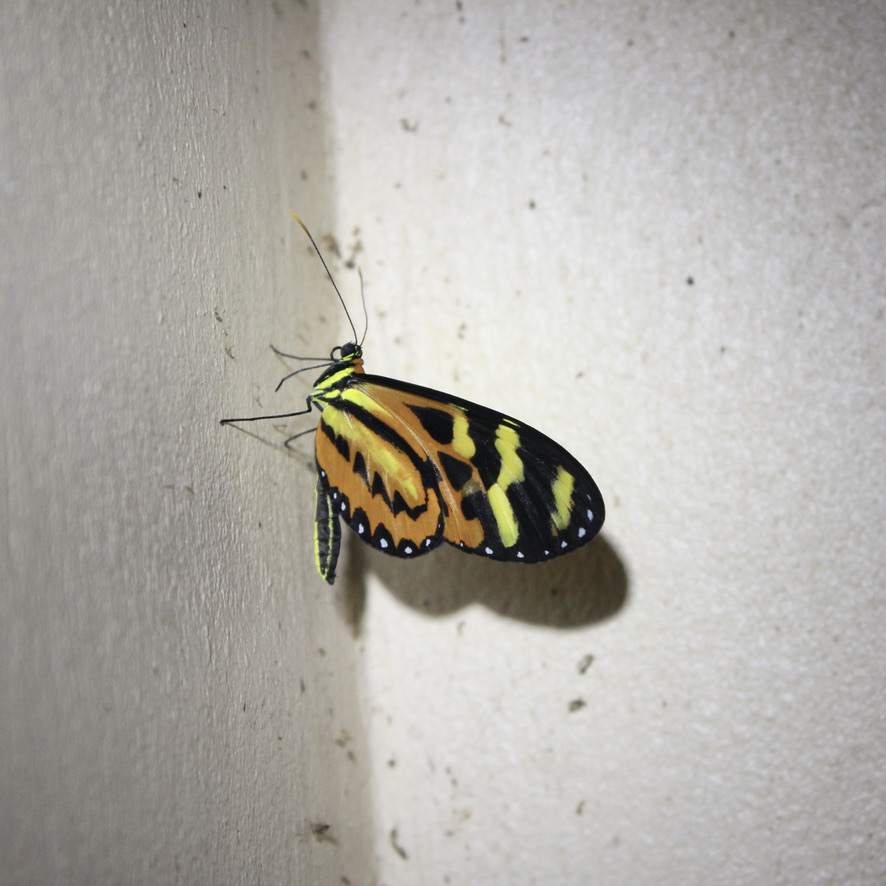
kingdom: Animalia
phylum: Arthropoda
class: Insecta
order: Lepidoptera
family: Nymphalidae
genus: Mechanitis
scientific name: Mechanitis polymnia
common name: Disturbed tigerwing
